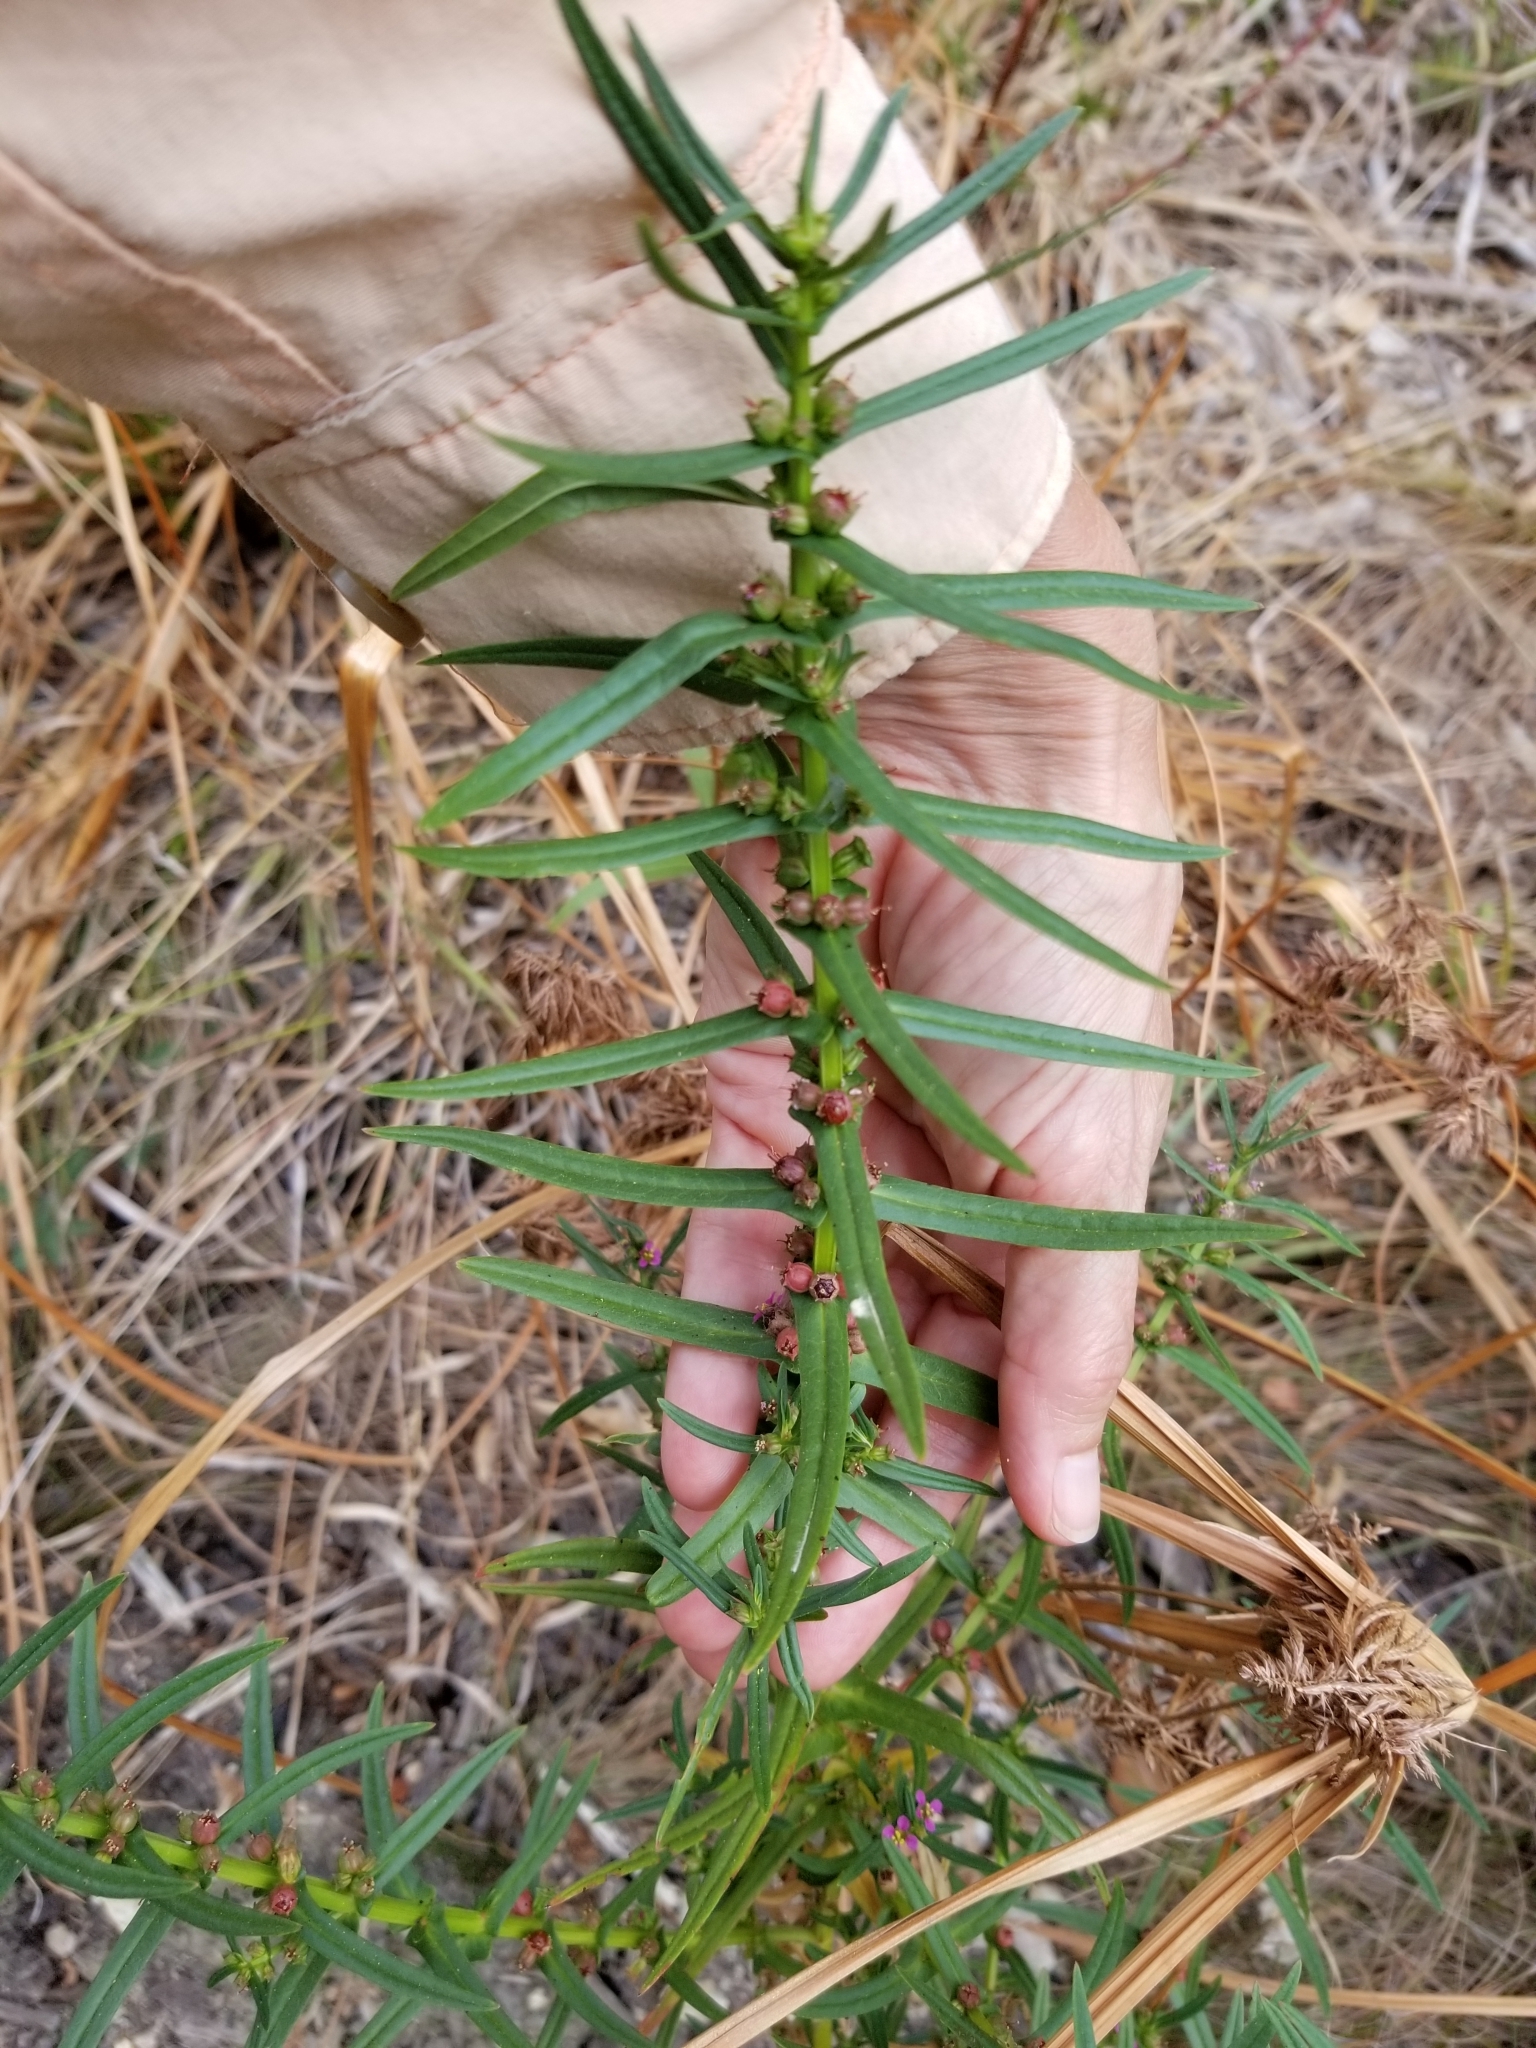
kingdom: Plantae
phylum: Tracheophyta
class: Magnoliopsida
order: Myrtales
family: Lythraceae
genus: Ammannia
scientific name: Ammannia coccinea
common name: Valley redstem
